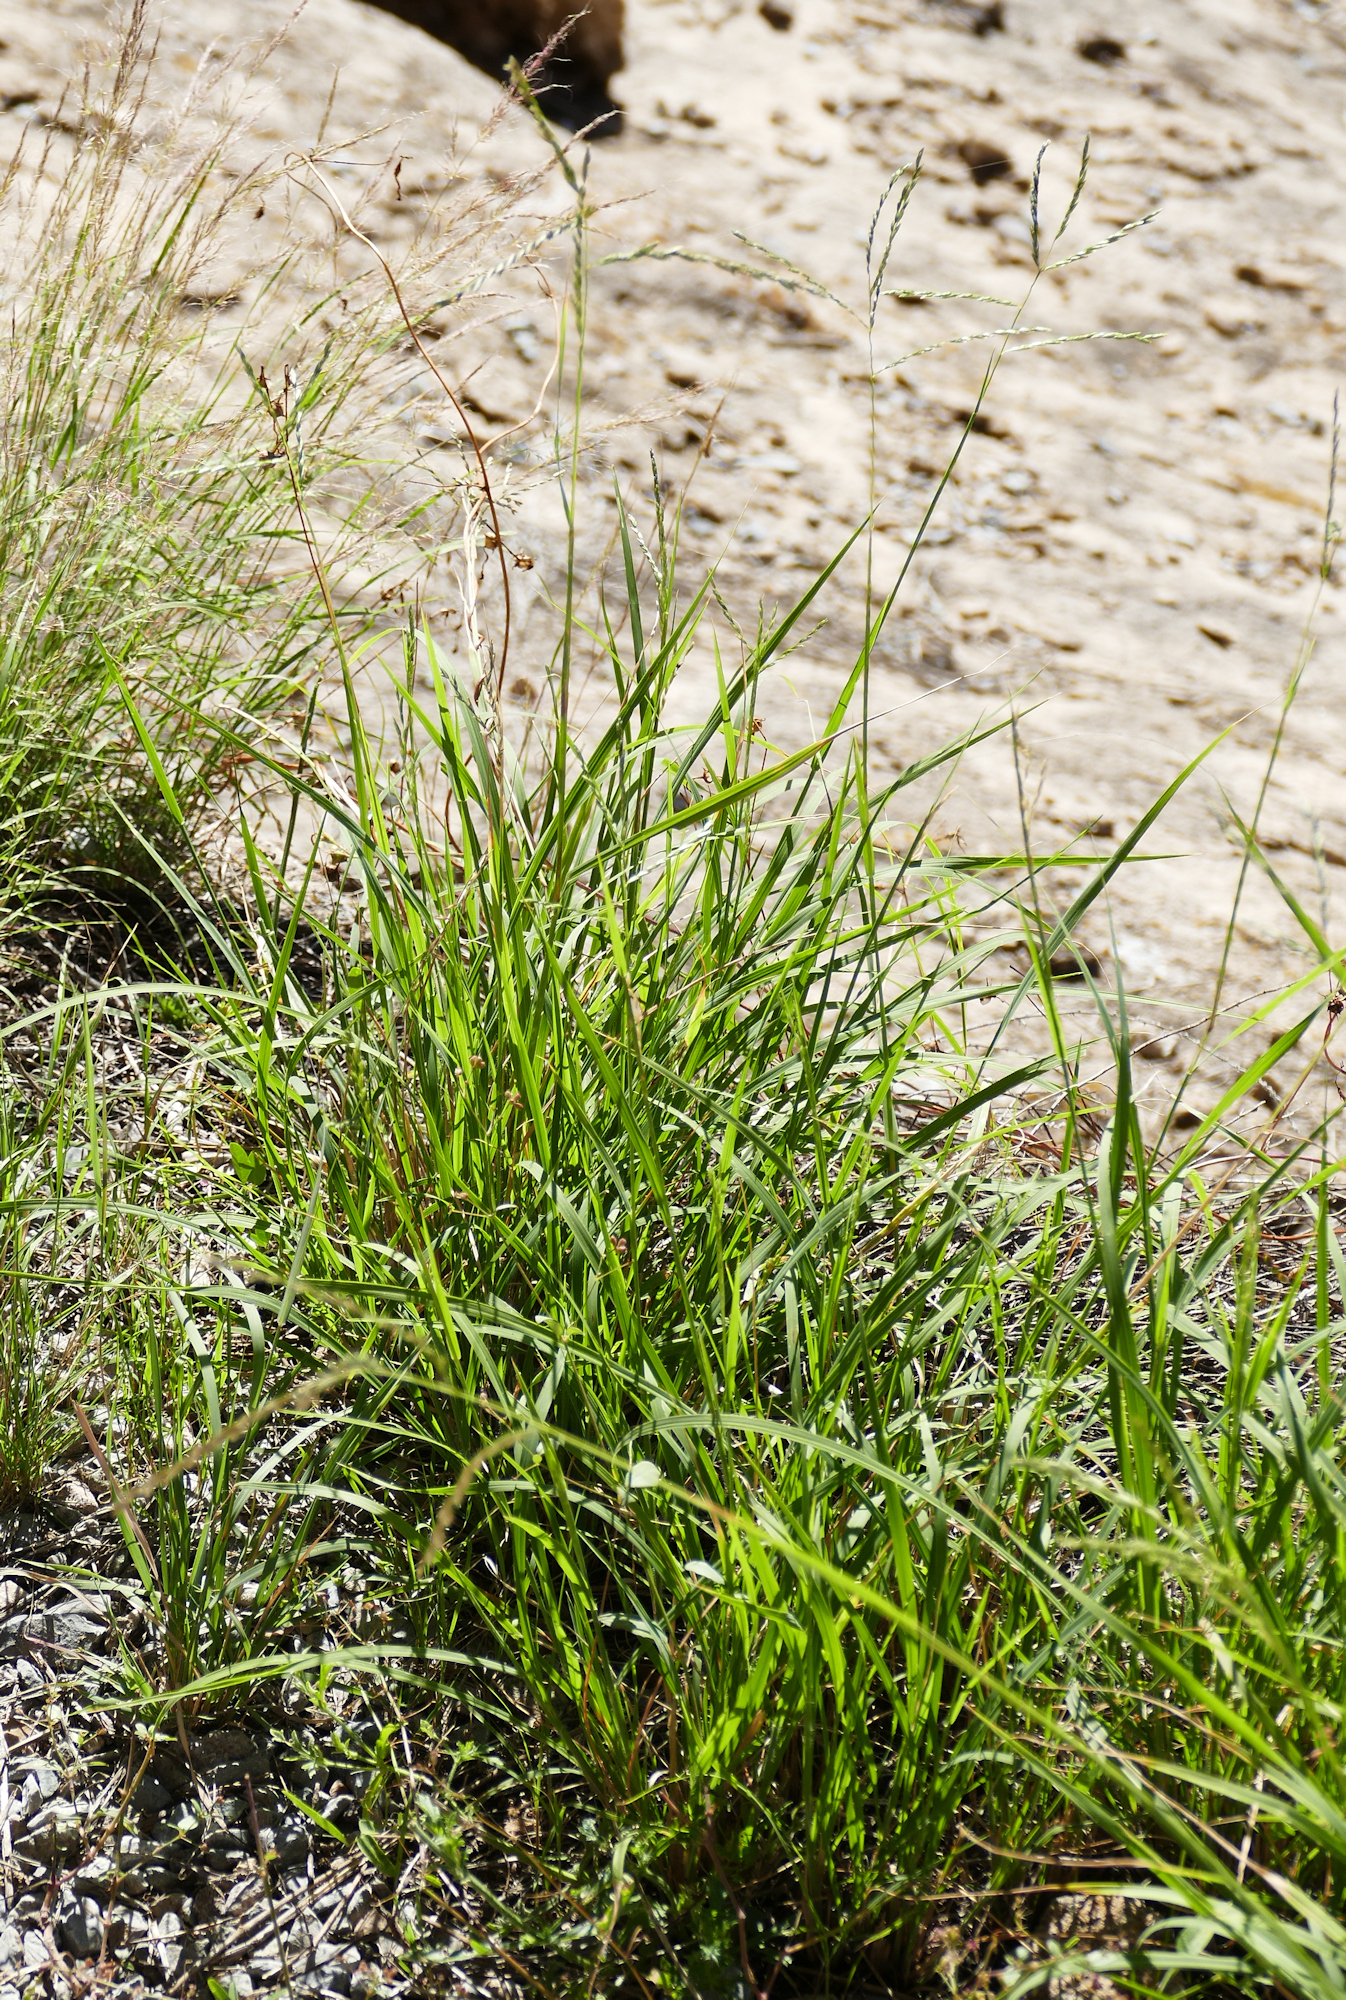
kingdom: Plantae
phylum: Tracheophyta
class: Liliopsida
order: Poales
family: Poaceae
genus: Disakisperma
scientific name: Disakisperma dubium
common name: Green sprangletop
